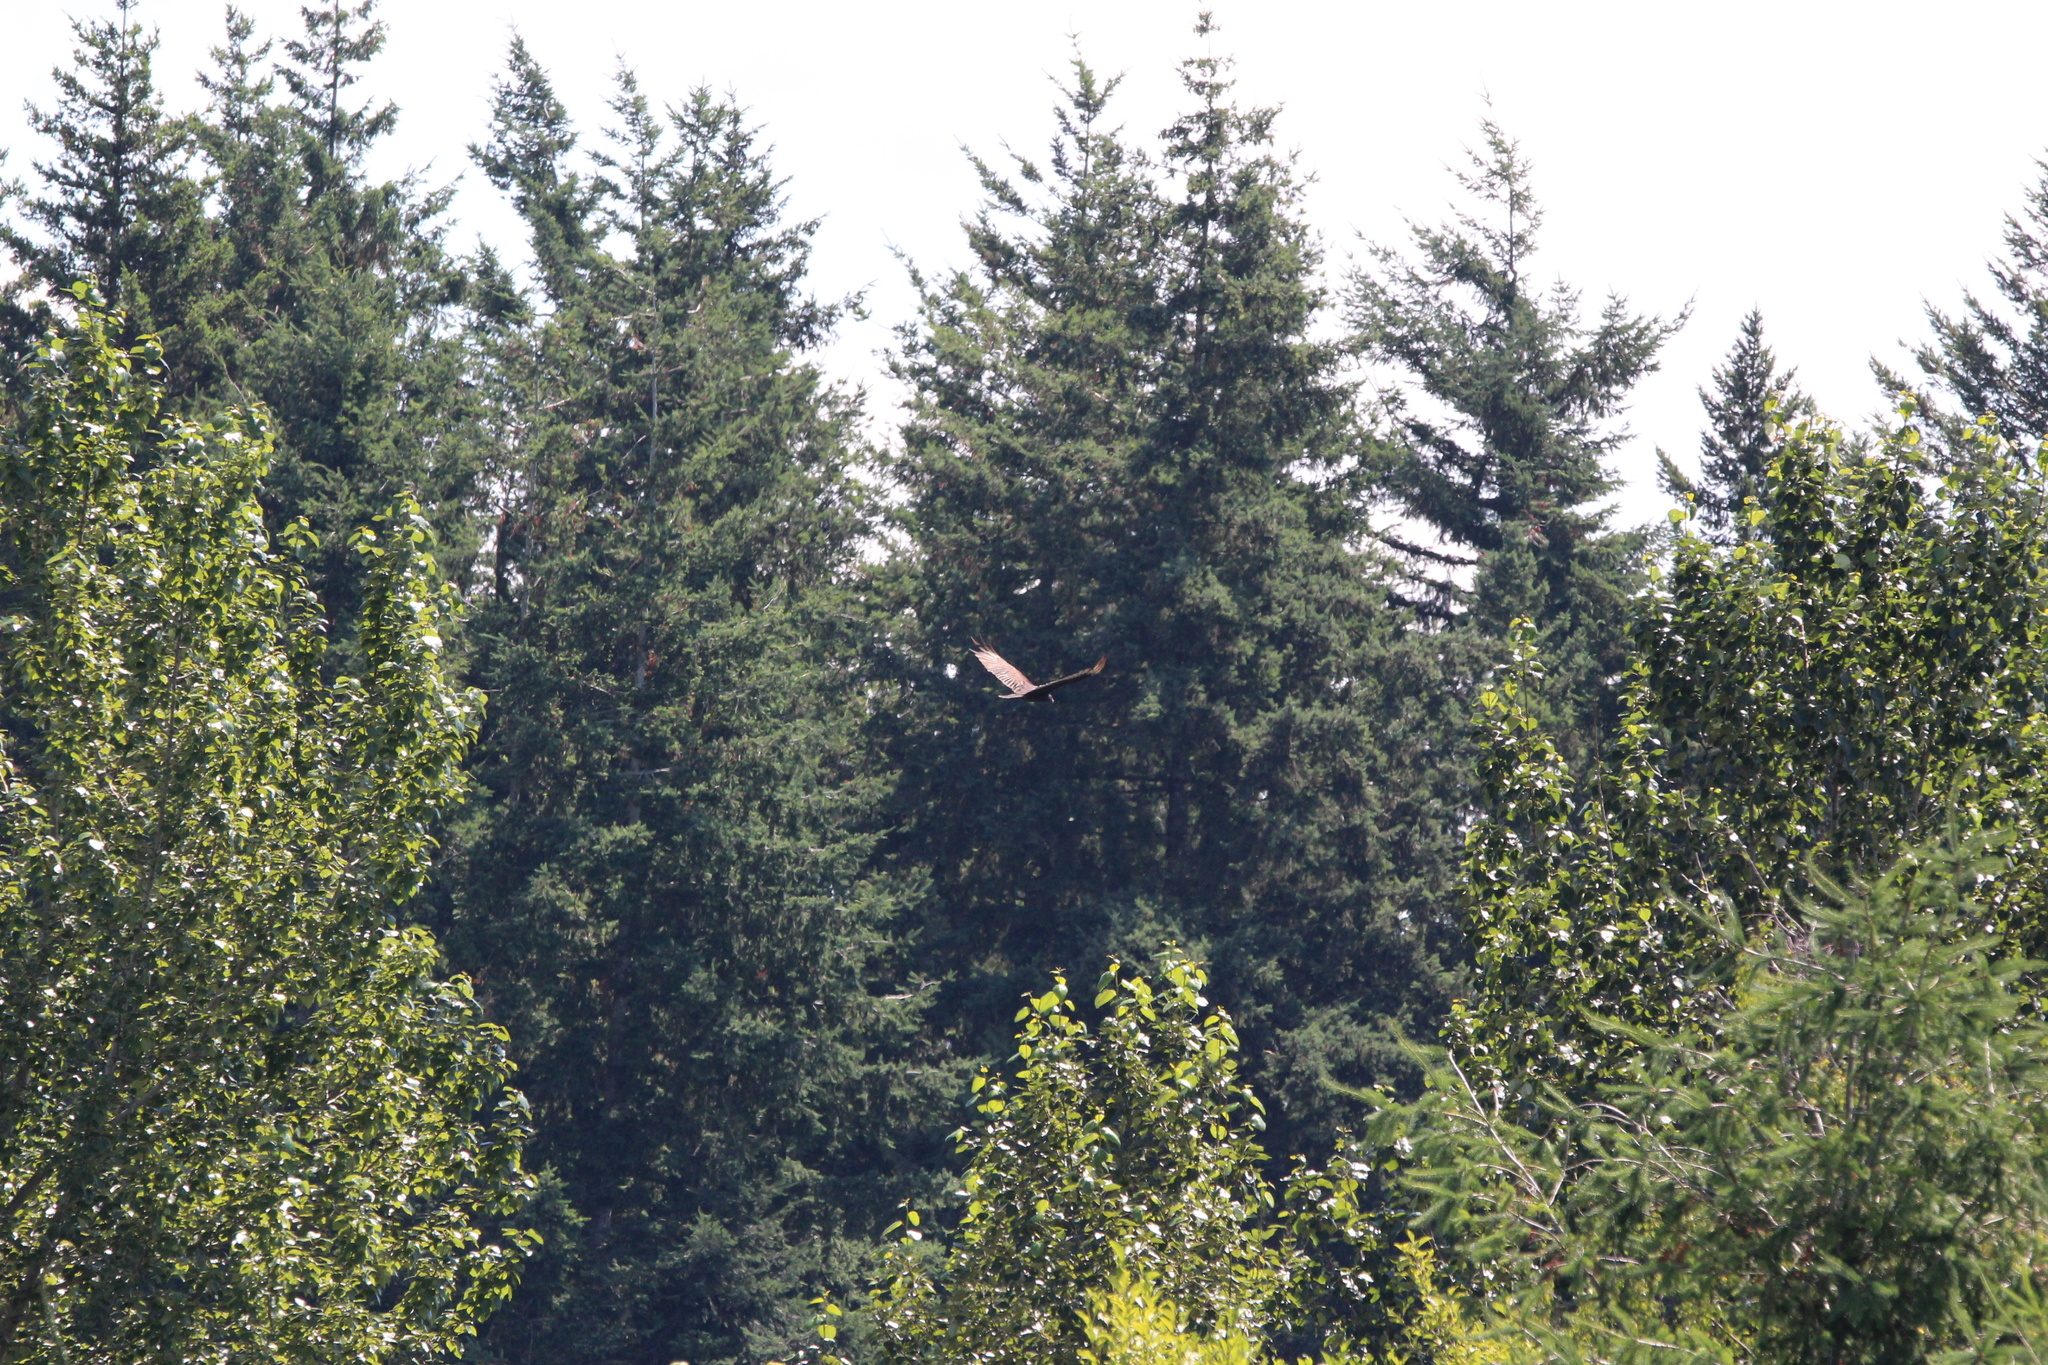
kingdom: Animalia
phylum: Chordata
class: Aves
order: Accipitriformes
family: Cathartidae
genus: Cathartes
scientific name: Cathartes aura
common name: Turkey vulture
